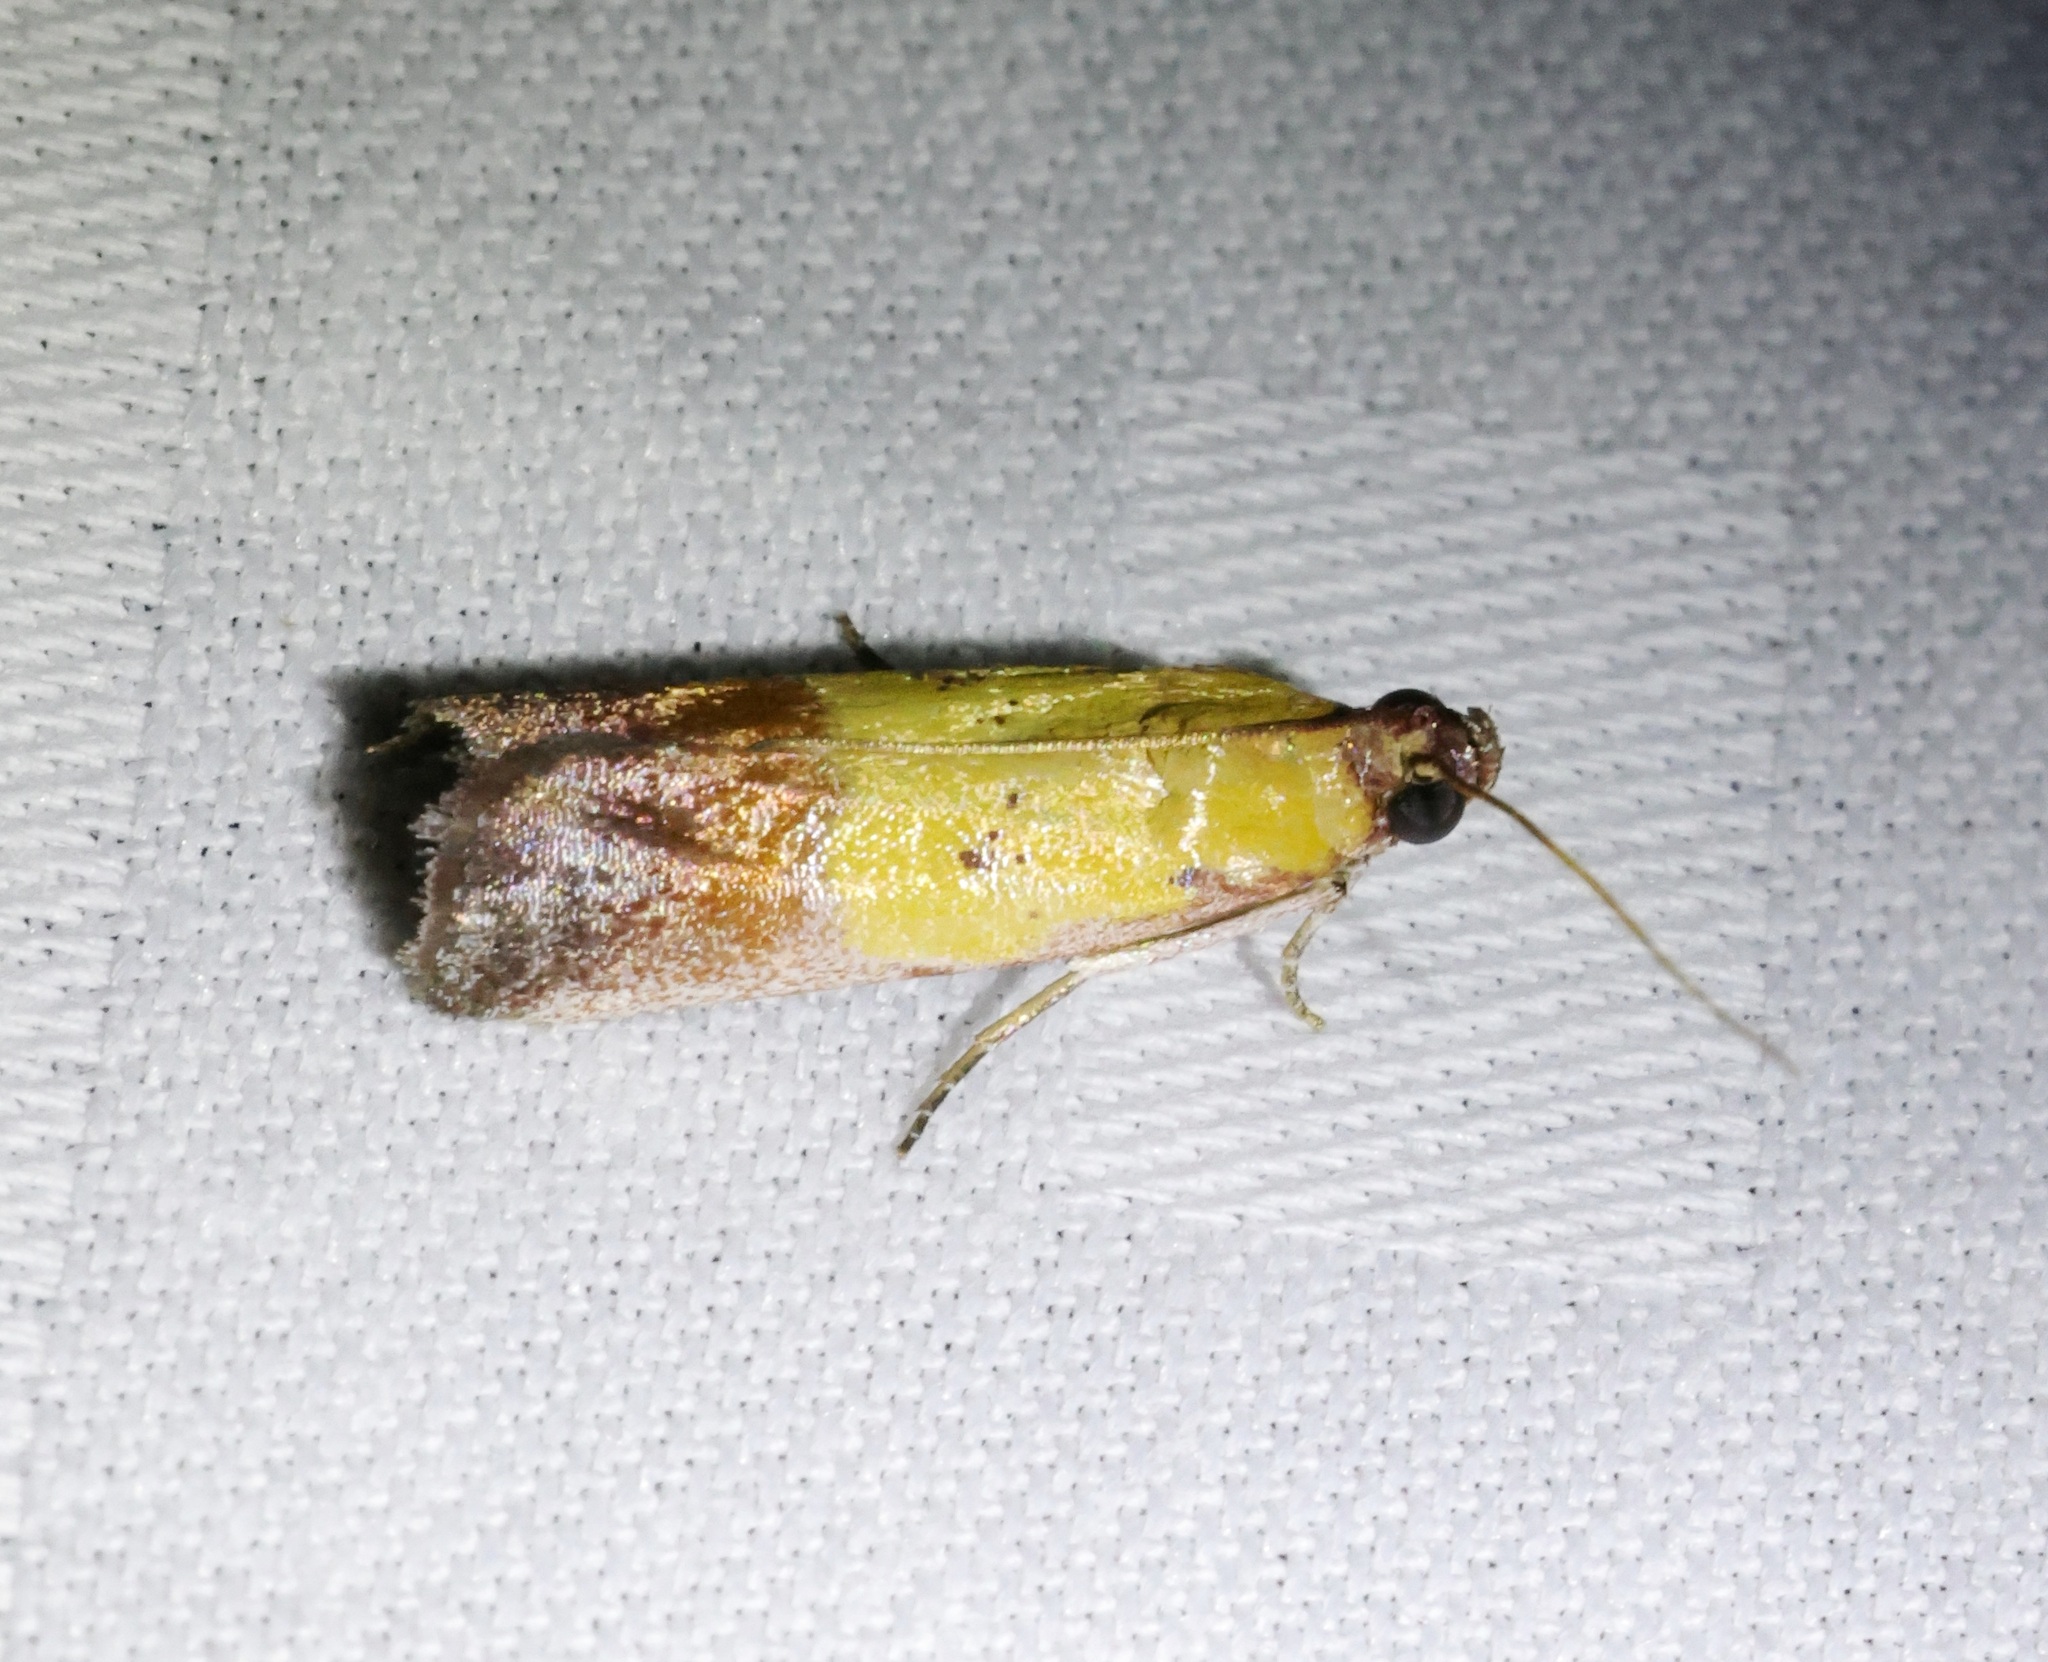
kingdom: Animalia
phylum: Arthropoda
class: Insecta
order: Lepidoptera
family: Pyralidae
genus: Piesmopoda
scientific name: Piesmopoda
